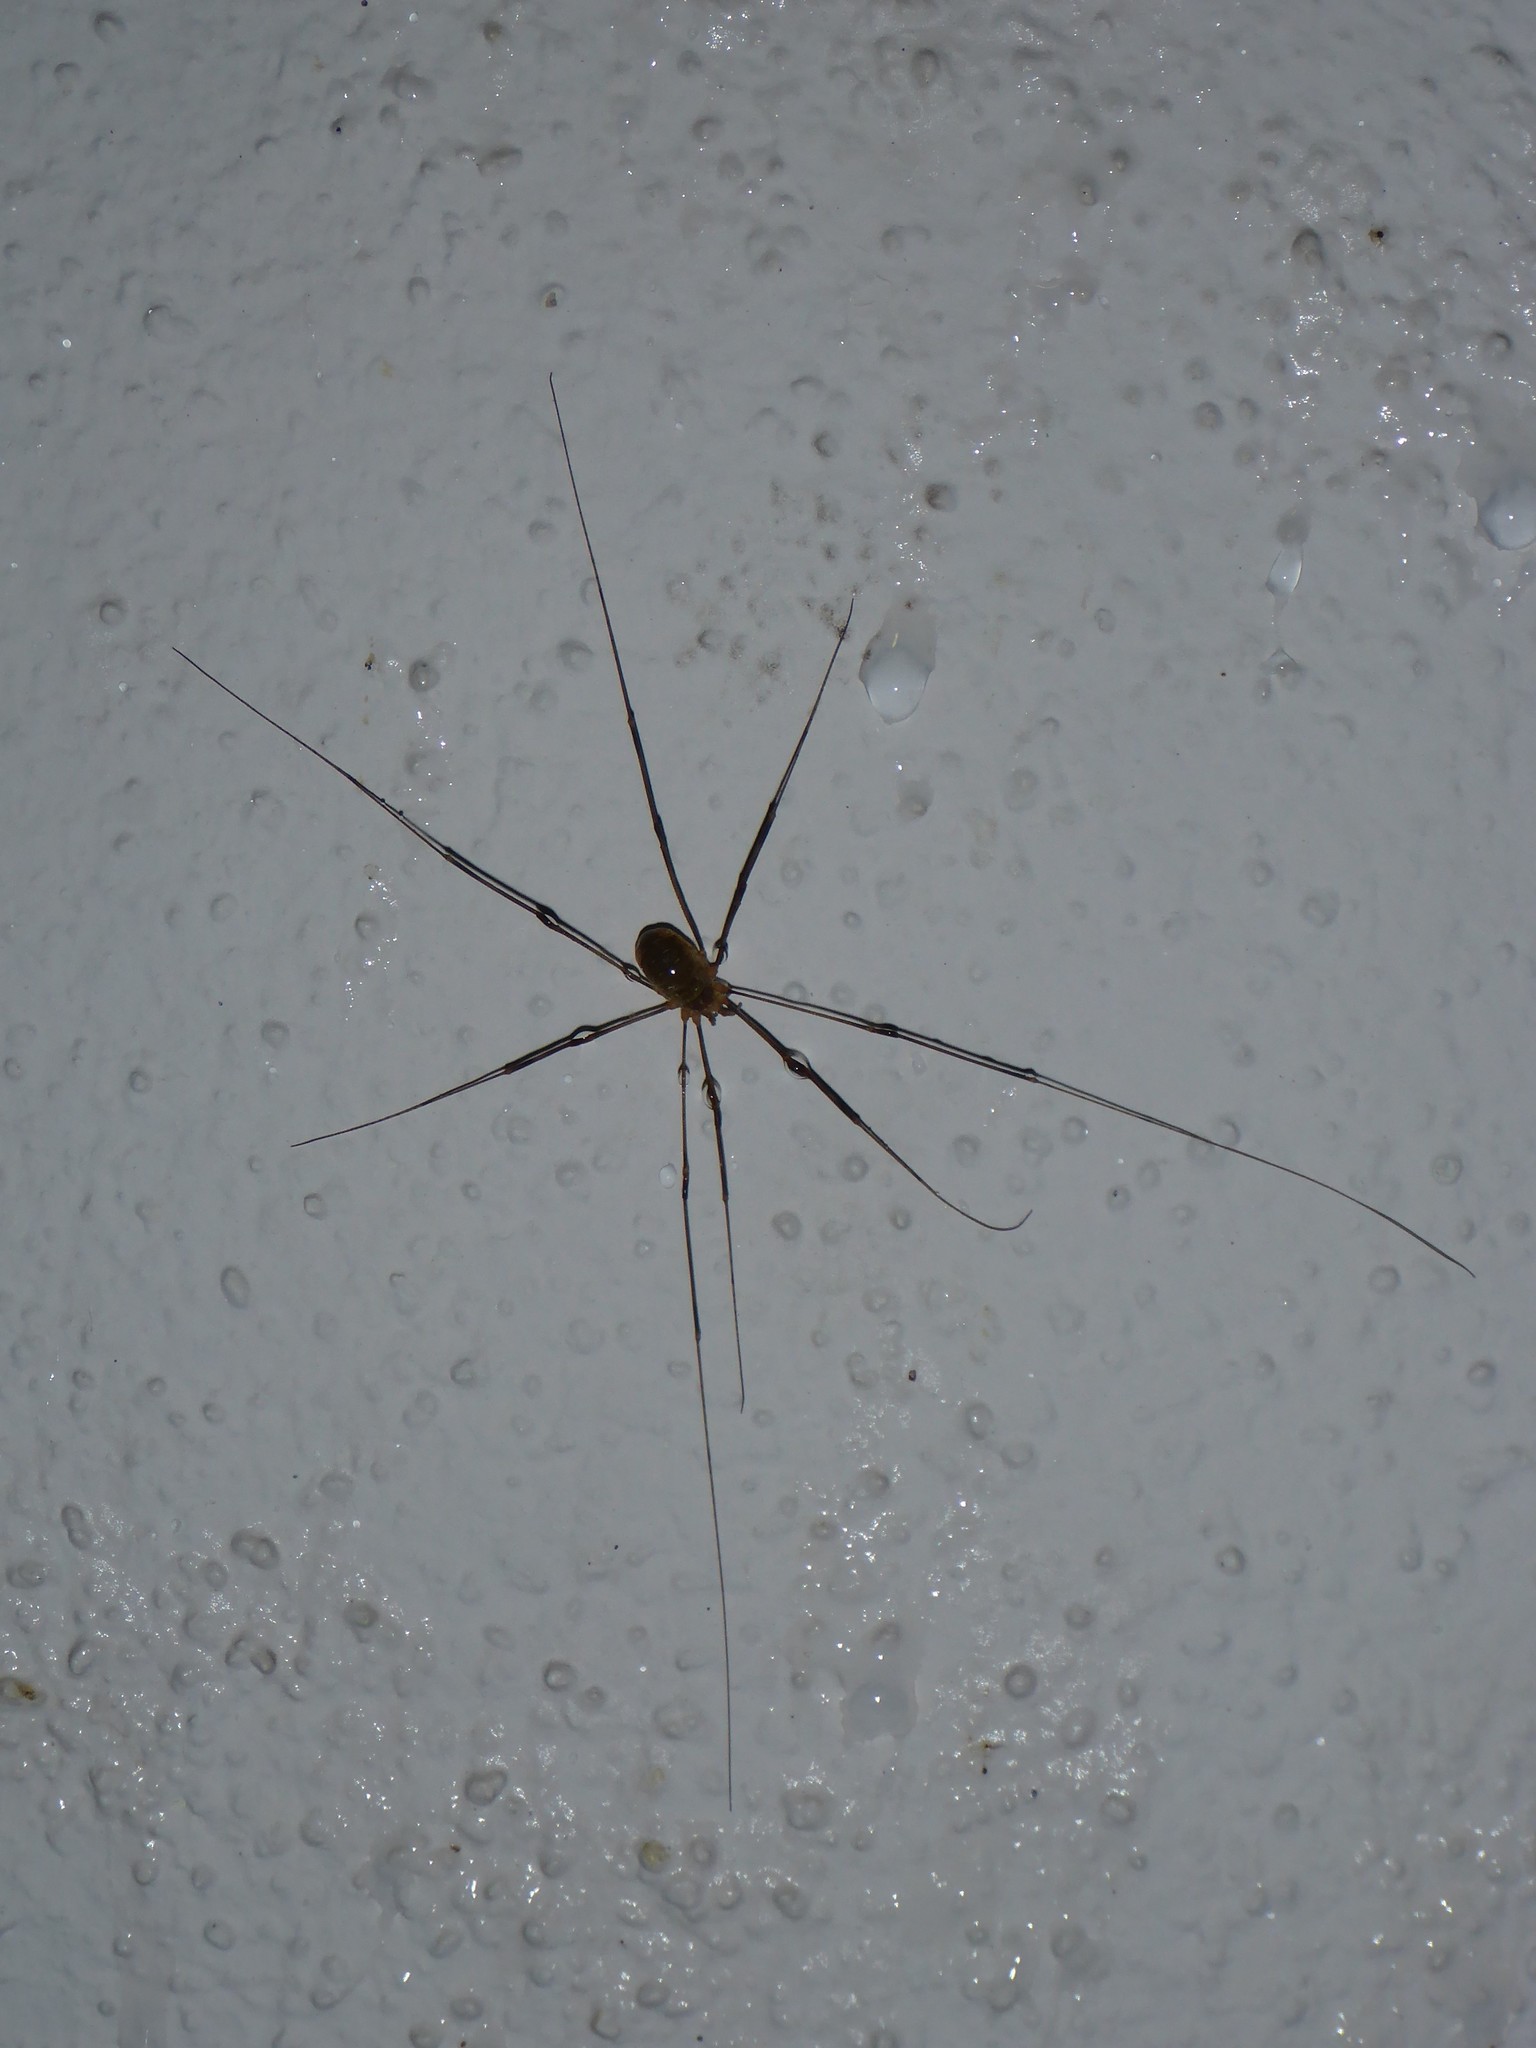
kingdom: Animalia
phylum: Arthropoda
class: Arachnida
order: Opiliones
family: Phalangiidae
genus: Opilio
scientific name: Opilio canestrinii
